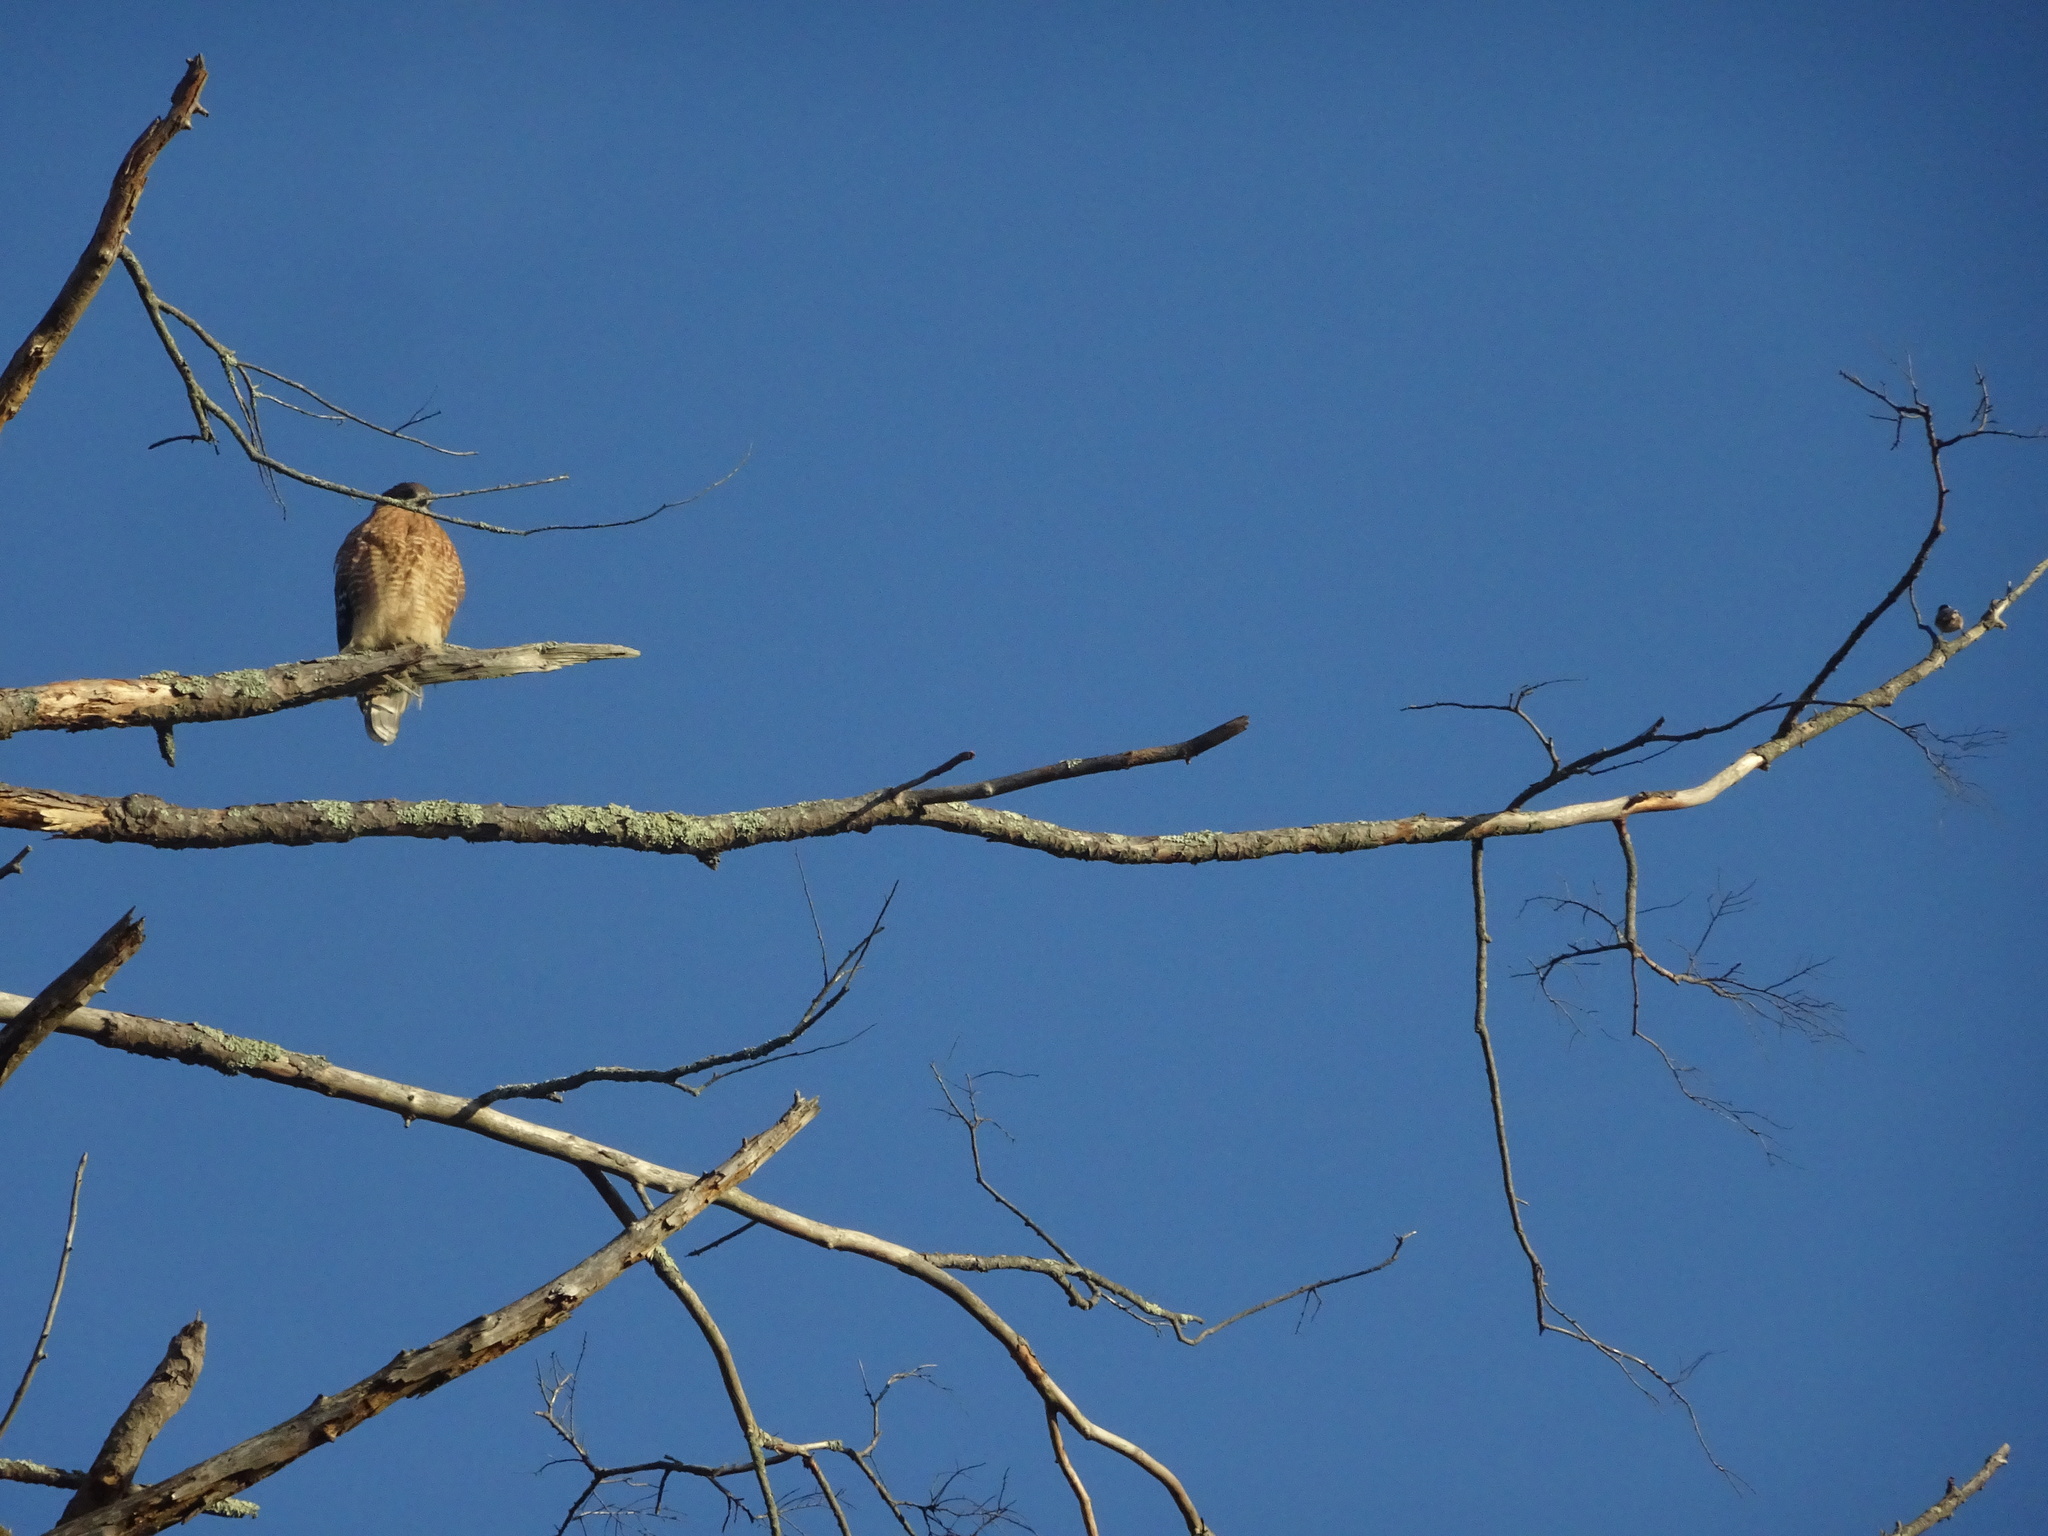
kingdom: Animalia
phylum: Chordata
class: Aves
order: Accipitriformes
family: Accipitridae
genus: Buteo
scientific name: Buteo lineatus
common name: Red-shouldered hawk
